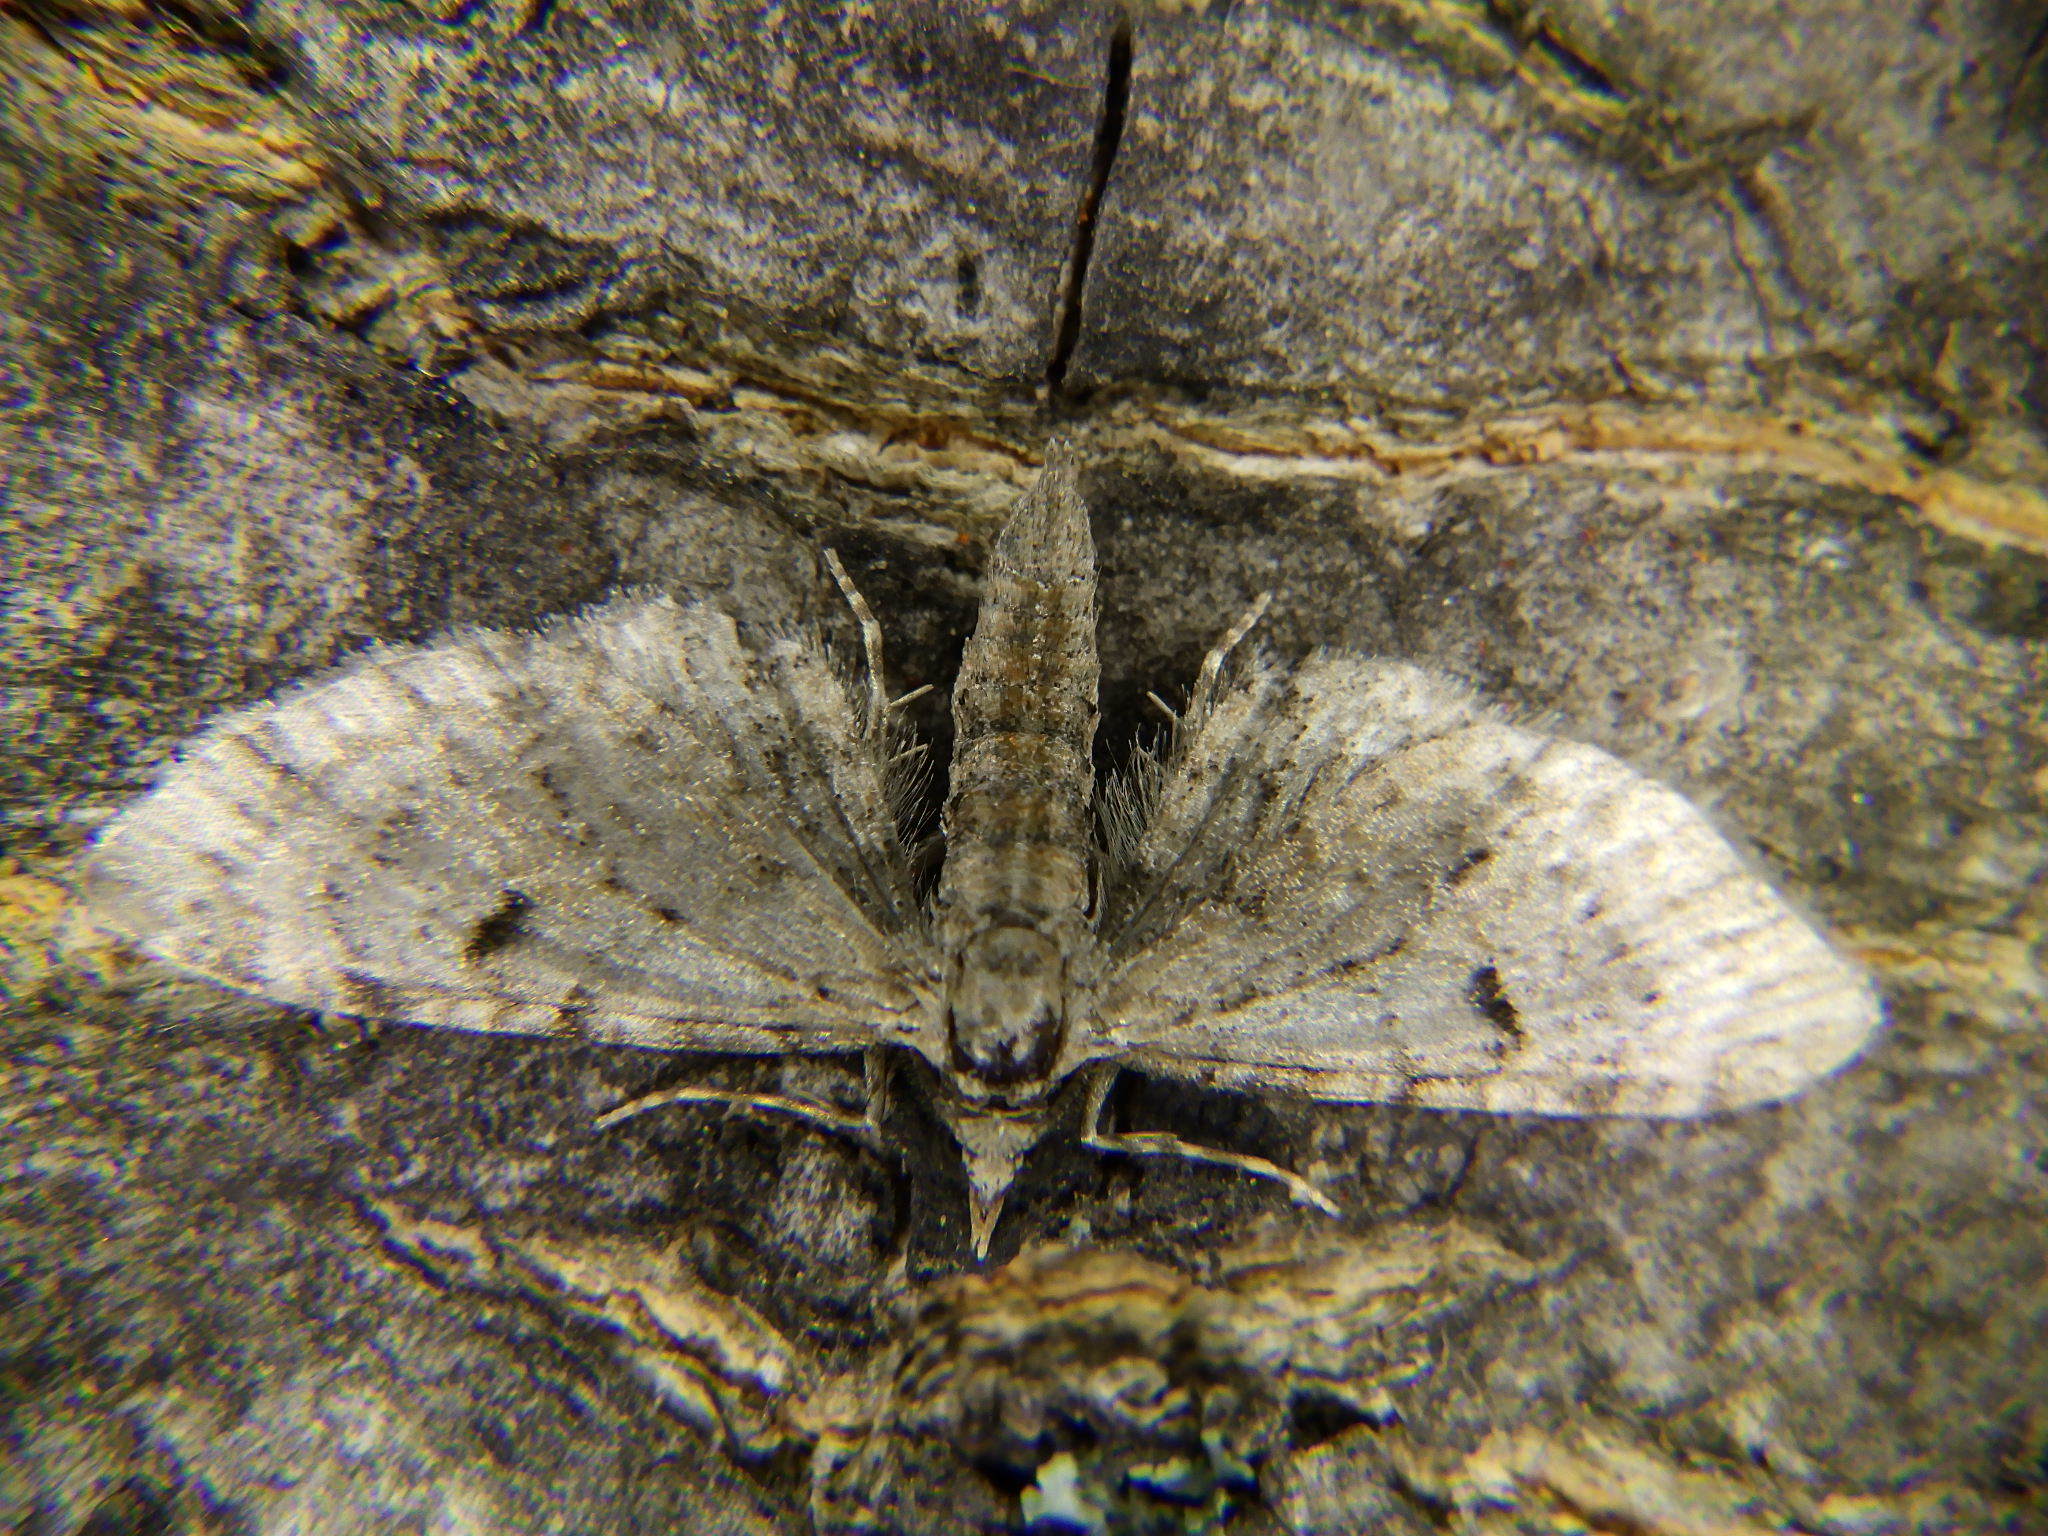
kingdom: Animalia
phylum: Arthropoda
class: Insecta
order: Lepidoptera
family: Geometridae
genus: Eupithecia
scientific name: Eupithecia
